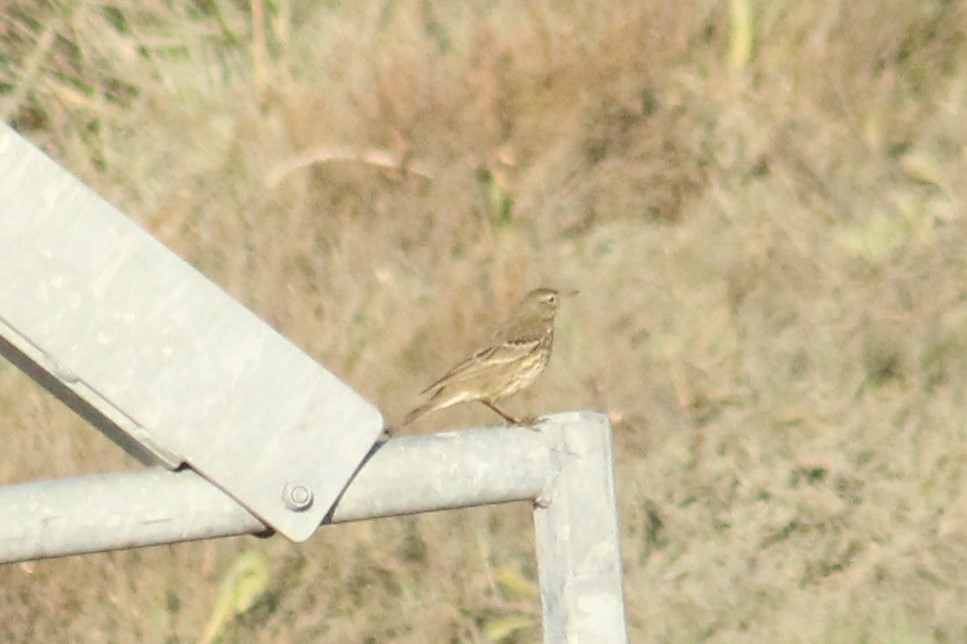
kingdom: Animalia
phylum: Chordata
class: Aves
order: Passeriformes
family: Motacillidae
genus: Anthus
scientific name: Anthus spinoletta
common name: Water pipit
